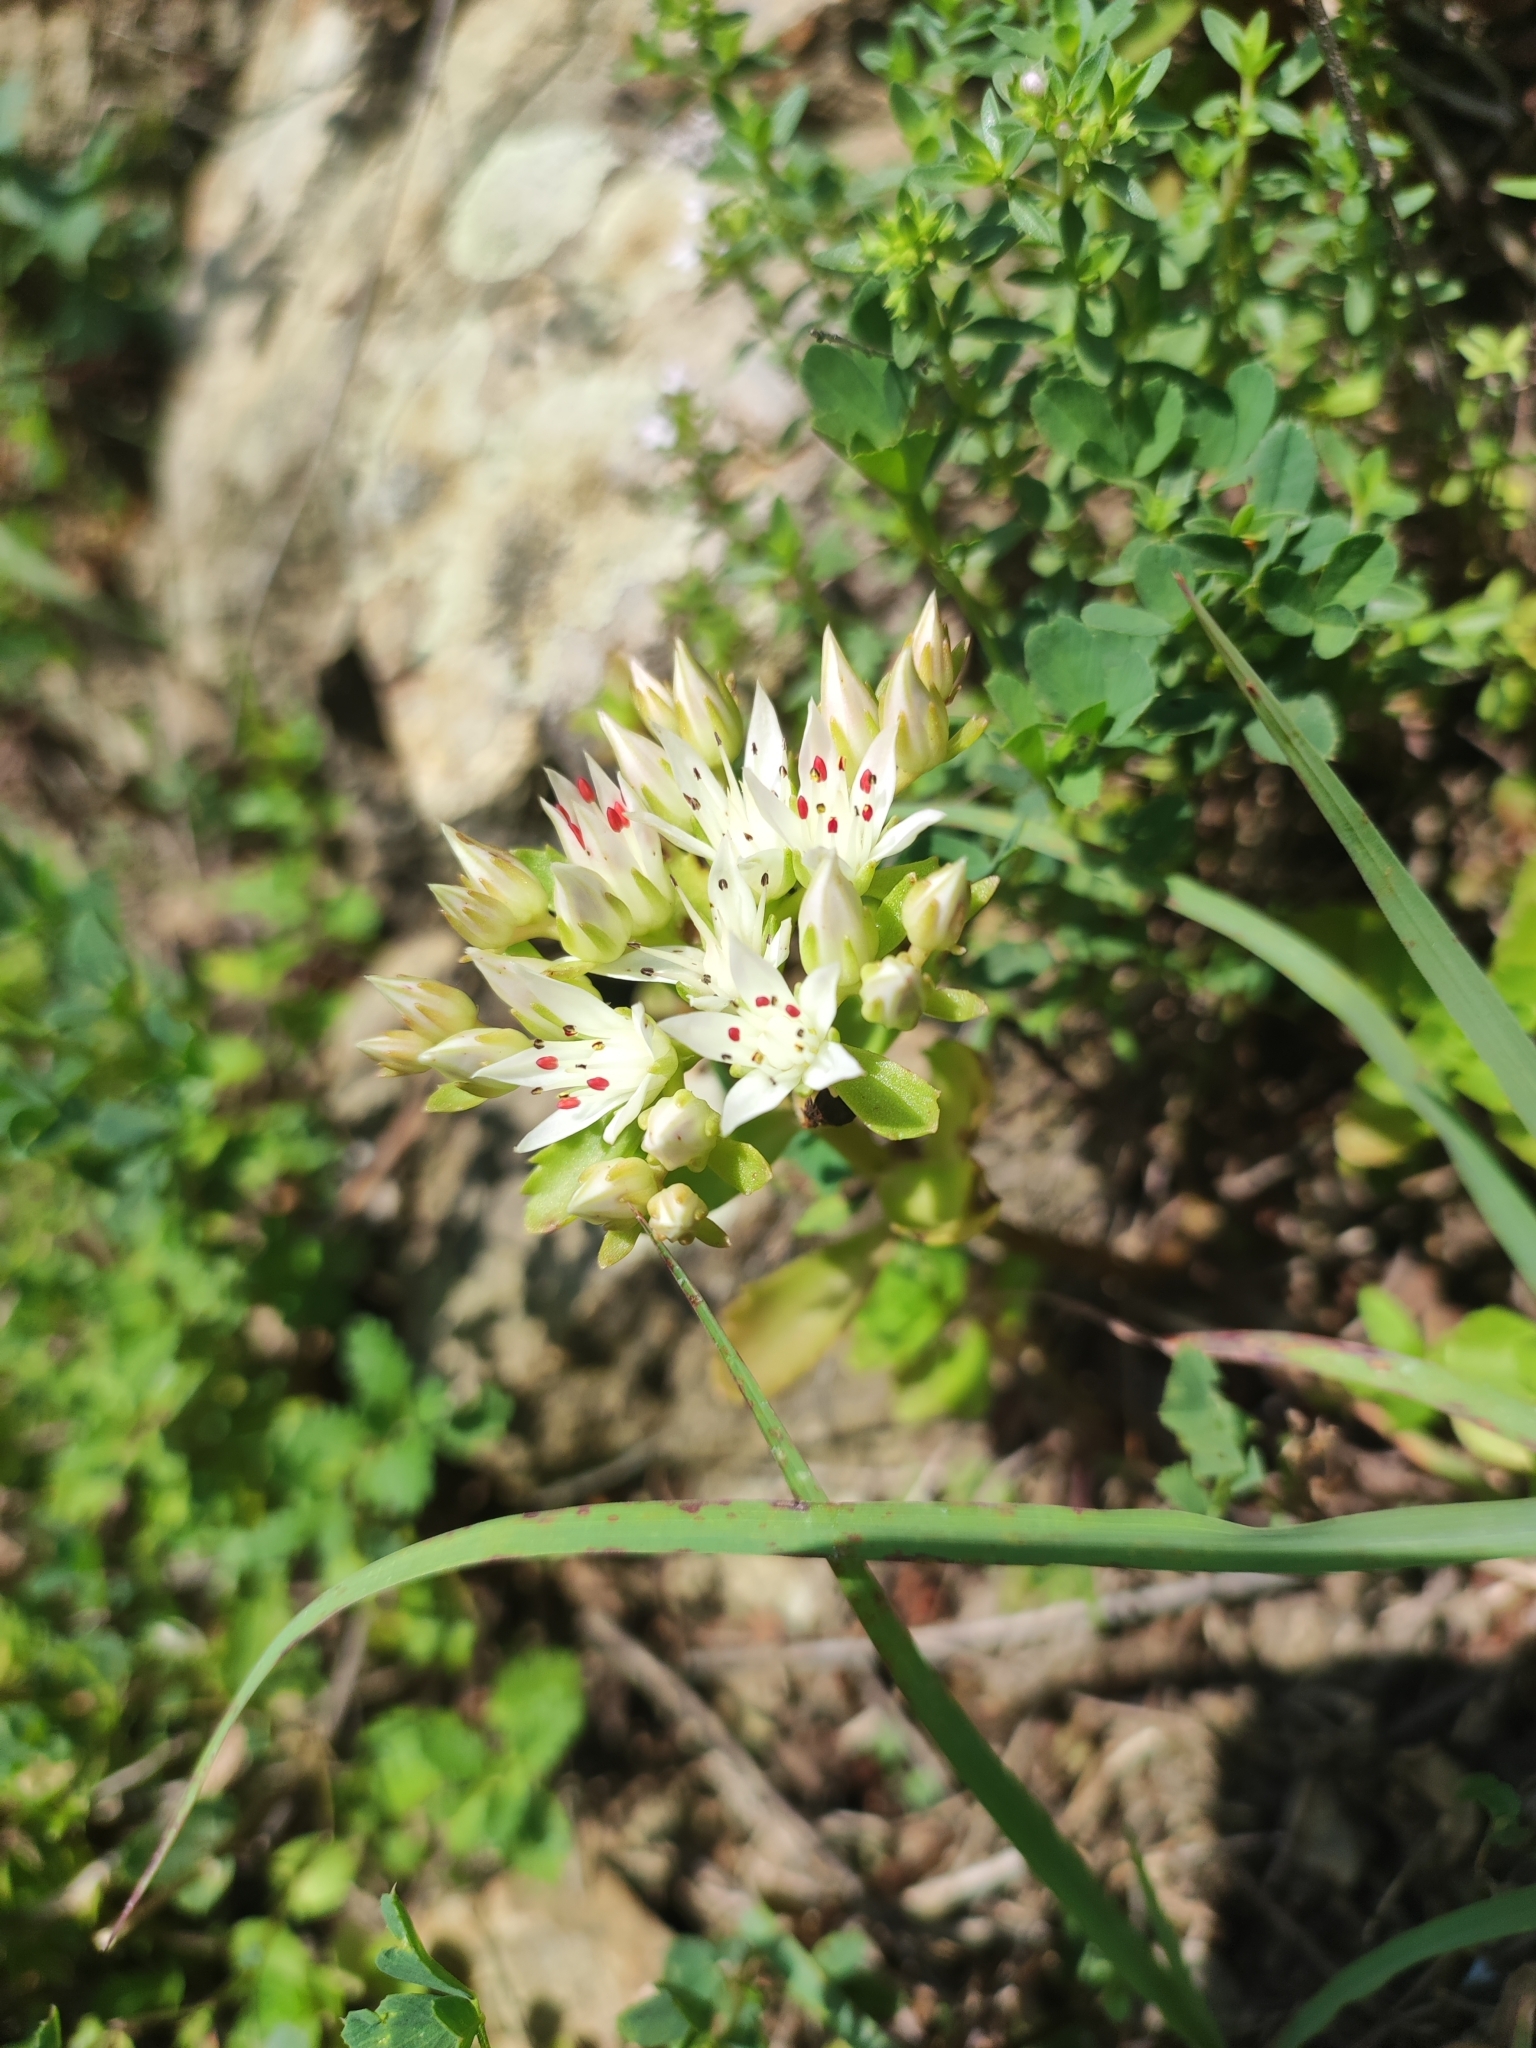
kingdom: Plantae
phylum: Tracheophyta
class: Magnoliopsida
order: Saxifragales
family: Crassulaceae
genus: Phedimus
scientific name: Phedimus spurius
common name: Caucasian stonecrop
